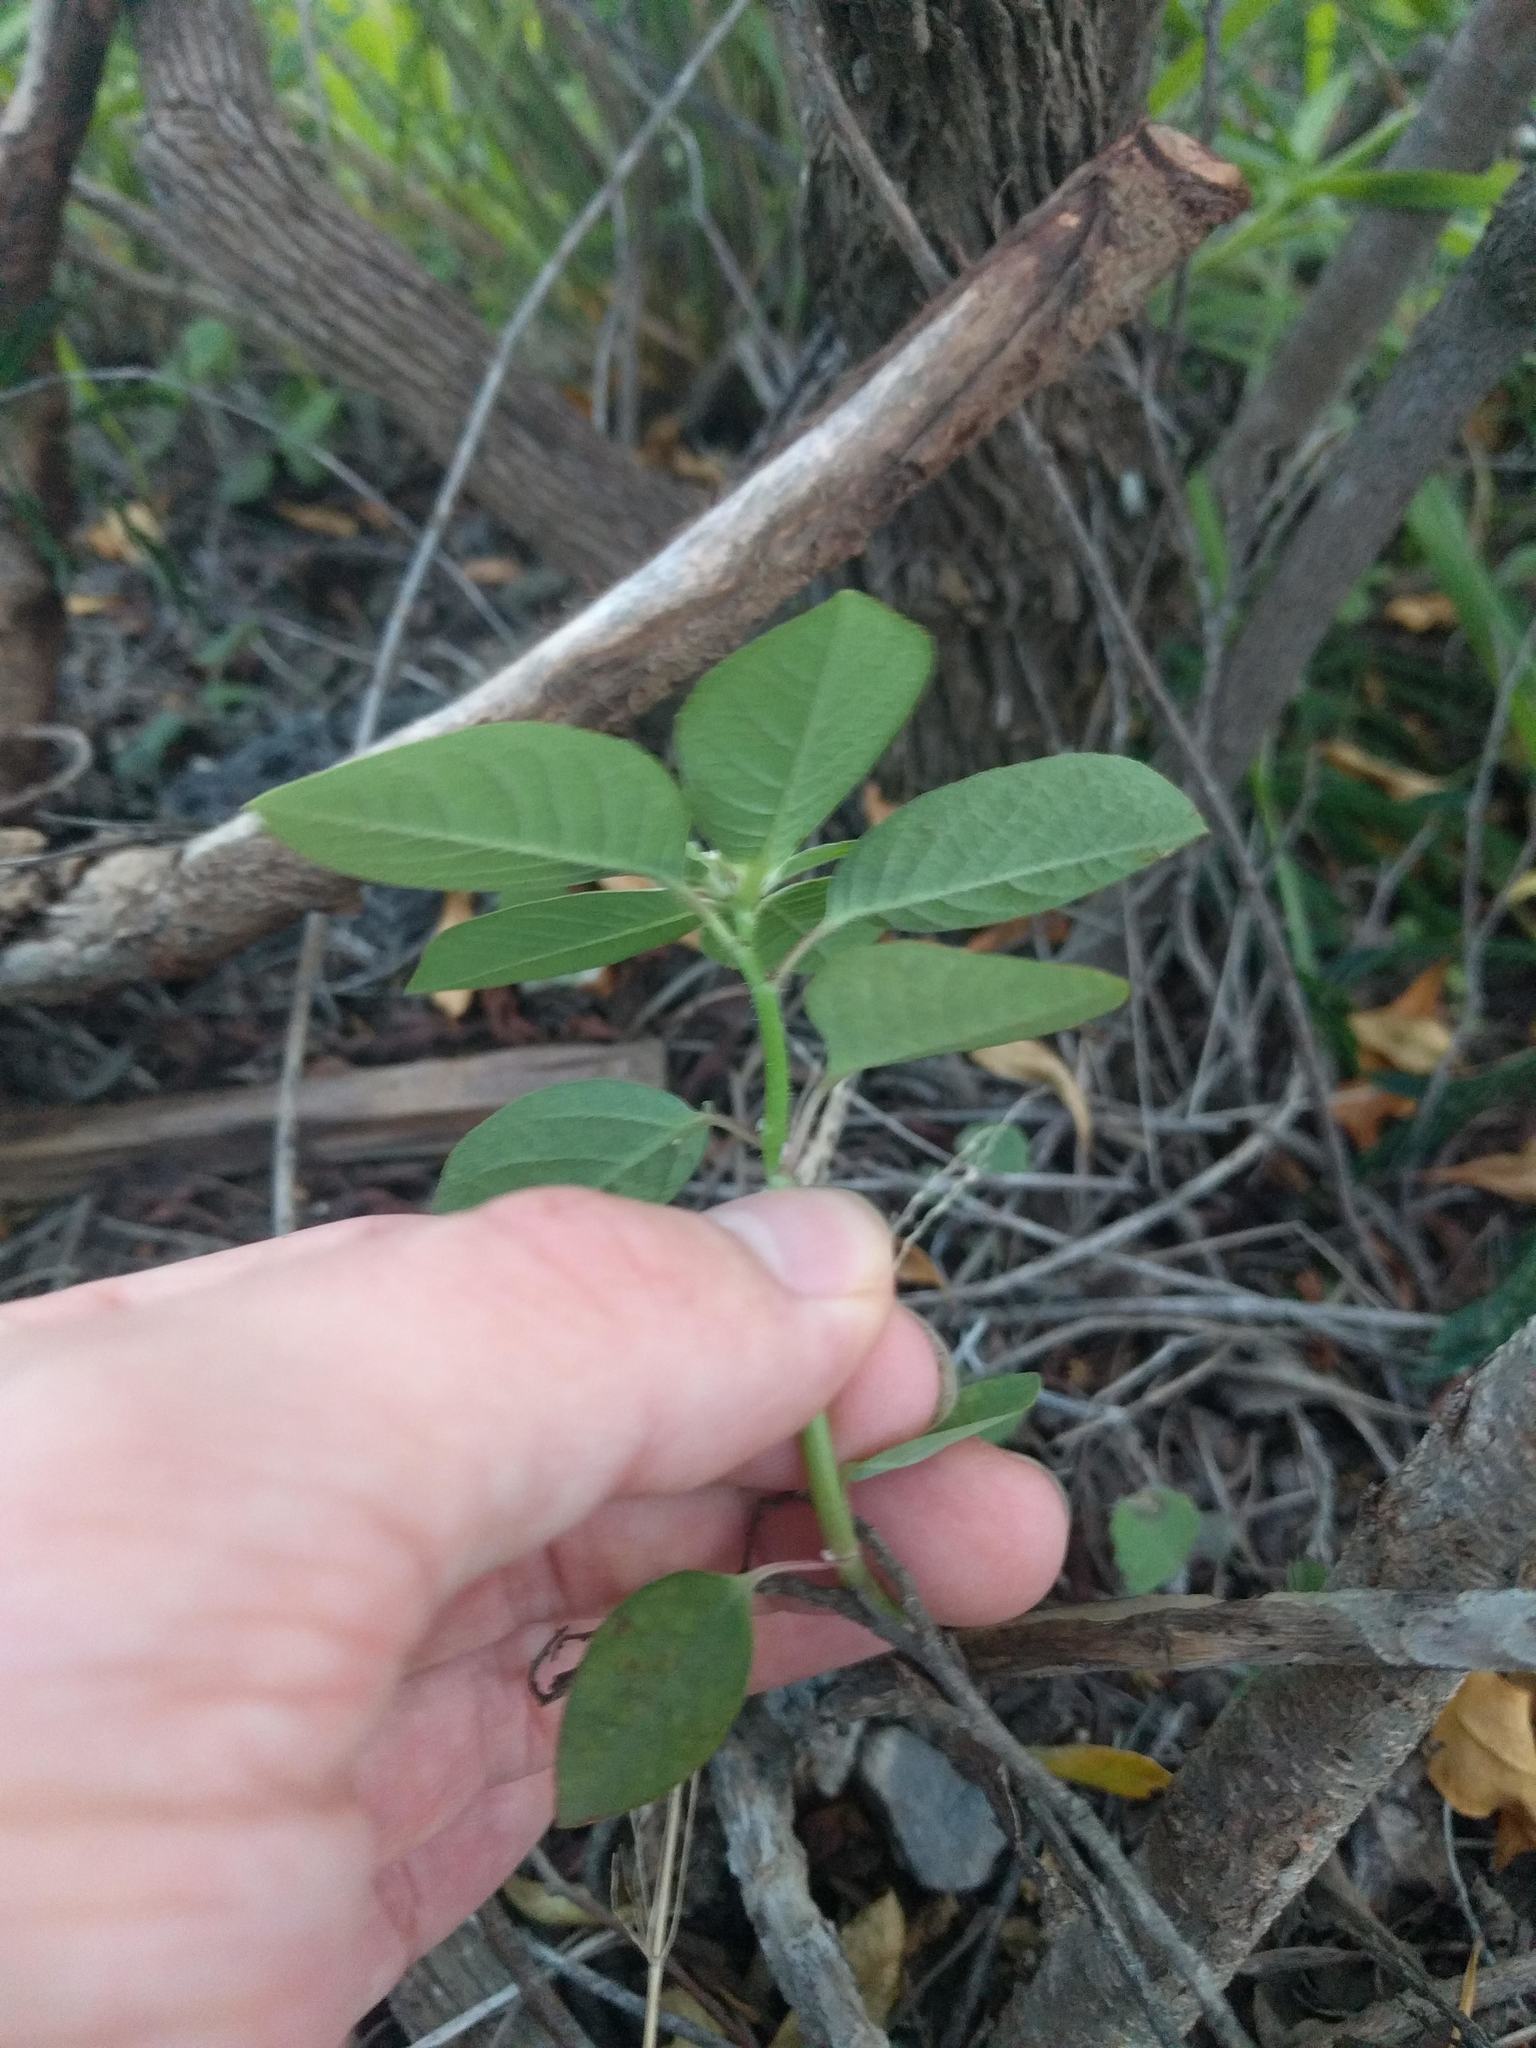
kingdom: Plantae
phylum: Tracheophyta
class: Magnoliopsida
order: Malpighiales
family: Euphorbiaceae
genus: Euphorbia
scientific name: Euphorbia heterophylla
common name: Mexican fireplant
